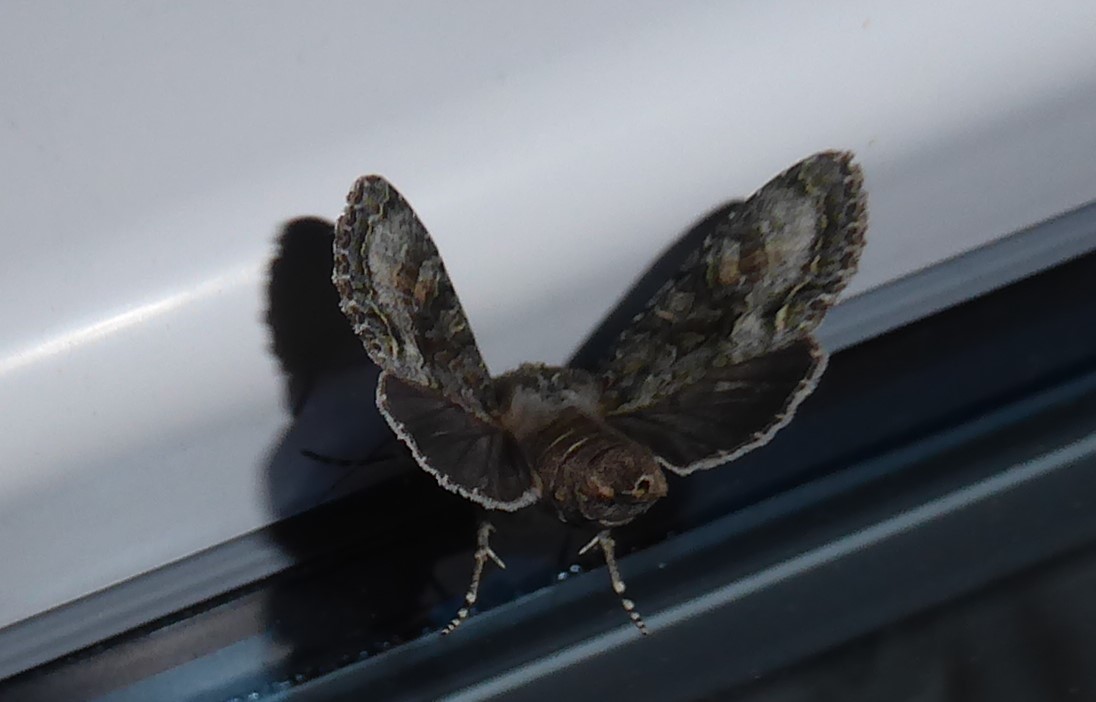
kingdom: Animalia
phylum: Arthropoda
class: Insecta
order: Lepidoptera
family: Noctuidae
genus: Ichneutica
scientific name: Ichneutica mutans
